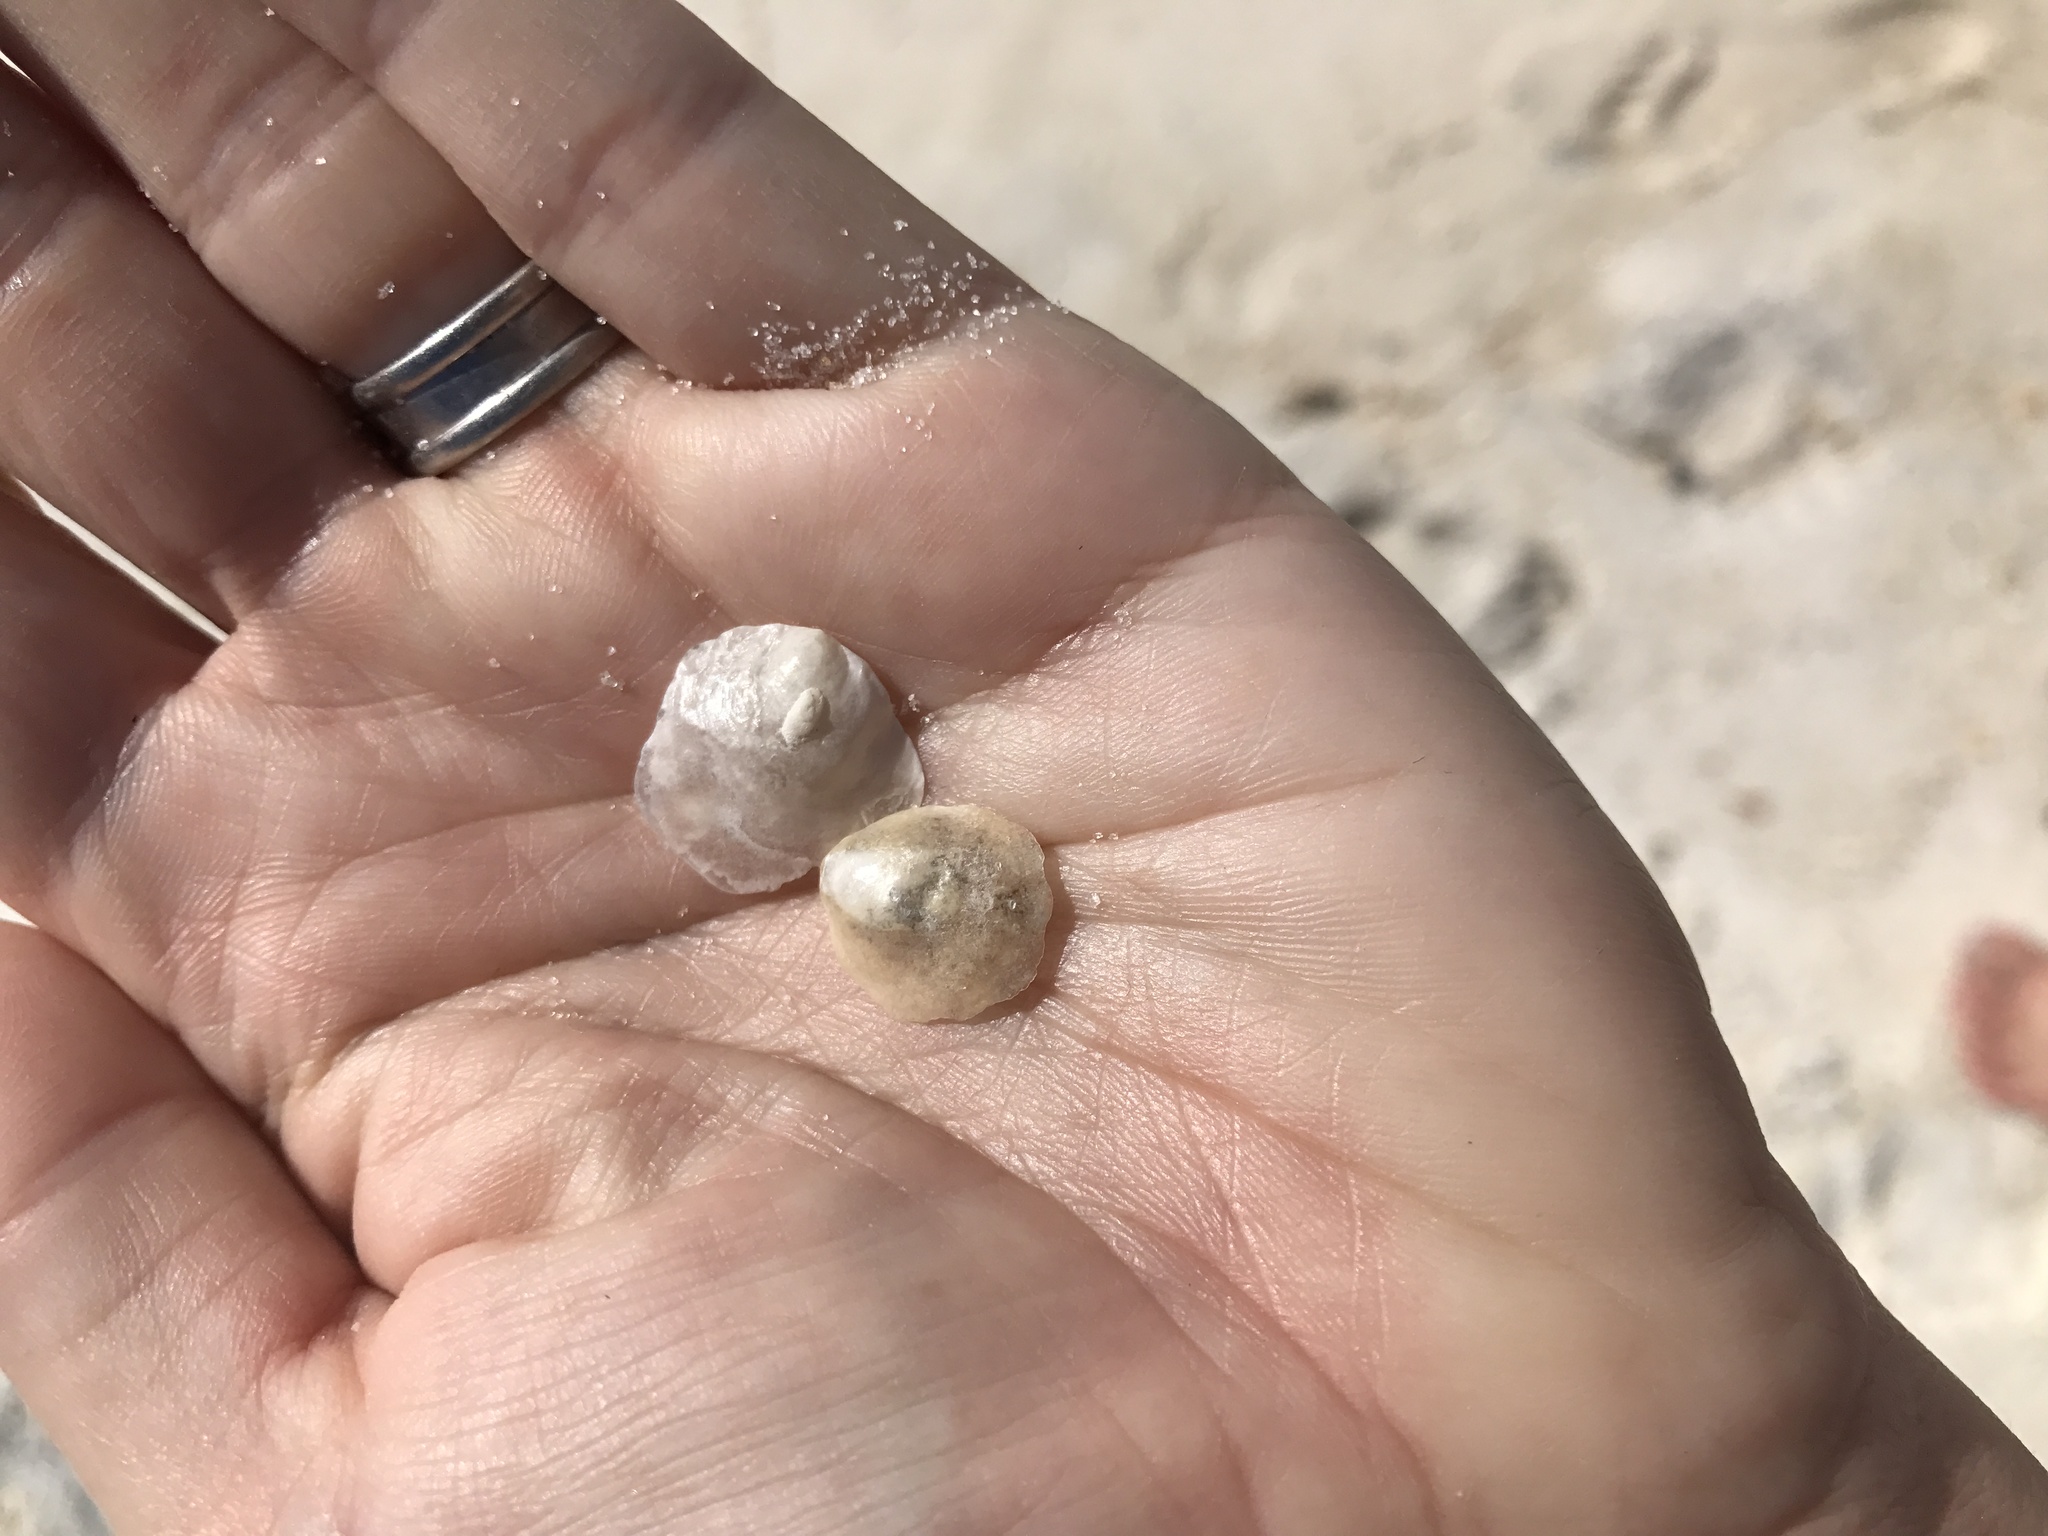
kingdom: Animalia
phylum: Mollusca
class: Bivalvia
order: Pectinida
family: Anomiidae
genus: Anomia
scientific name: Anomia simplex
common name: Common jingle shell
